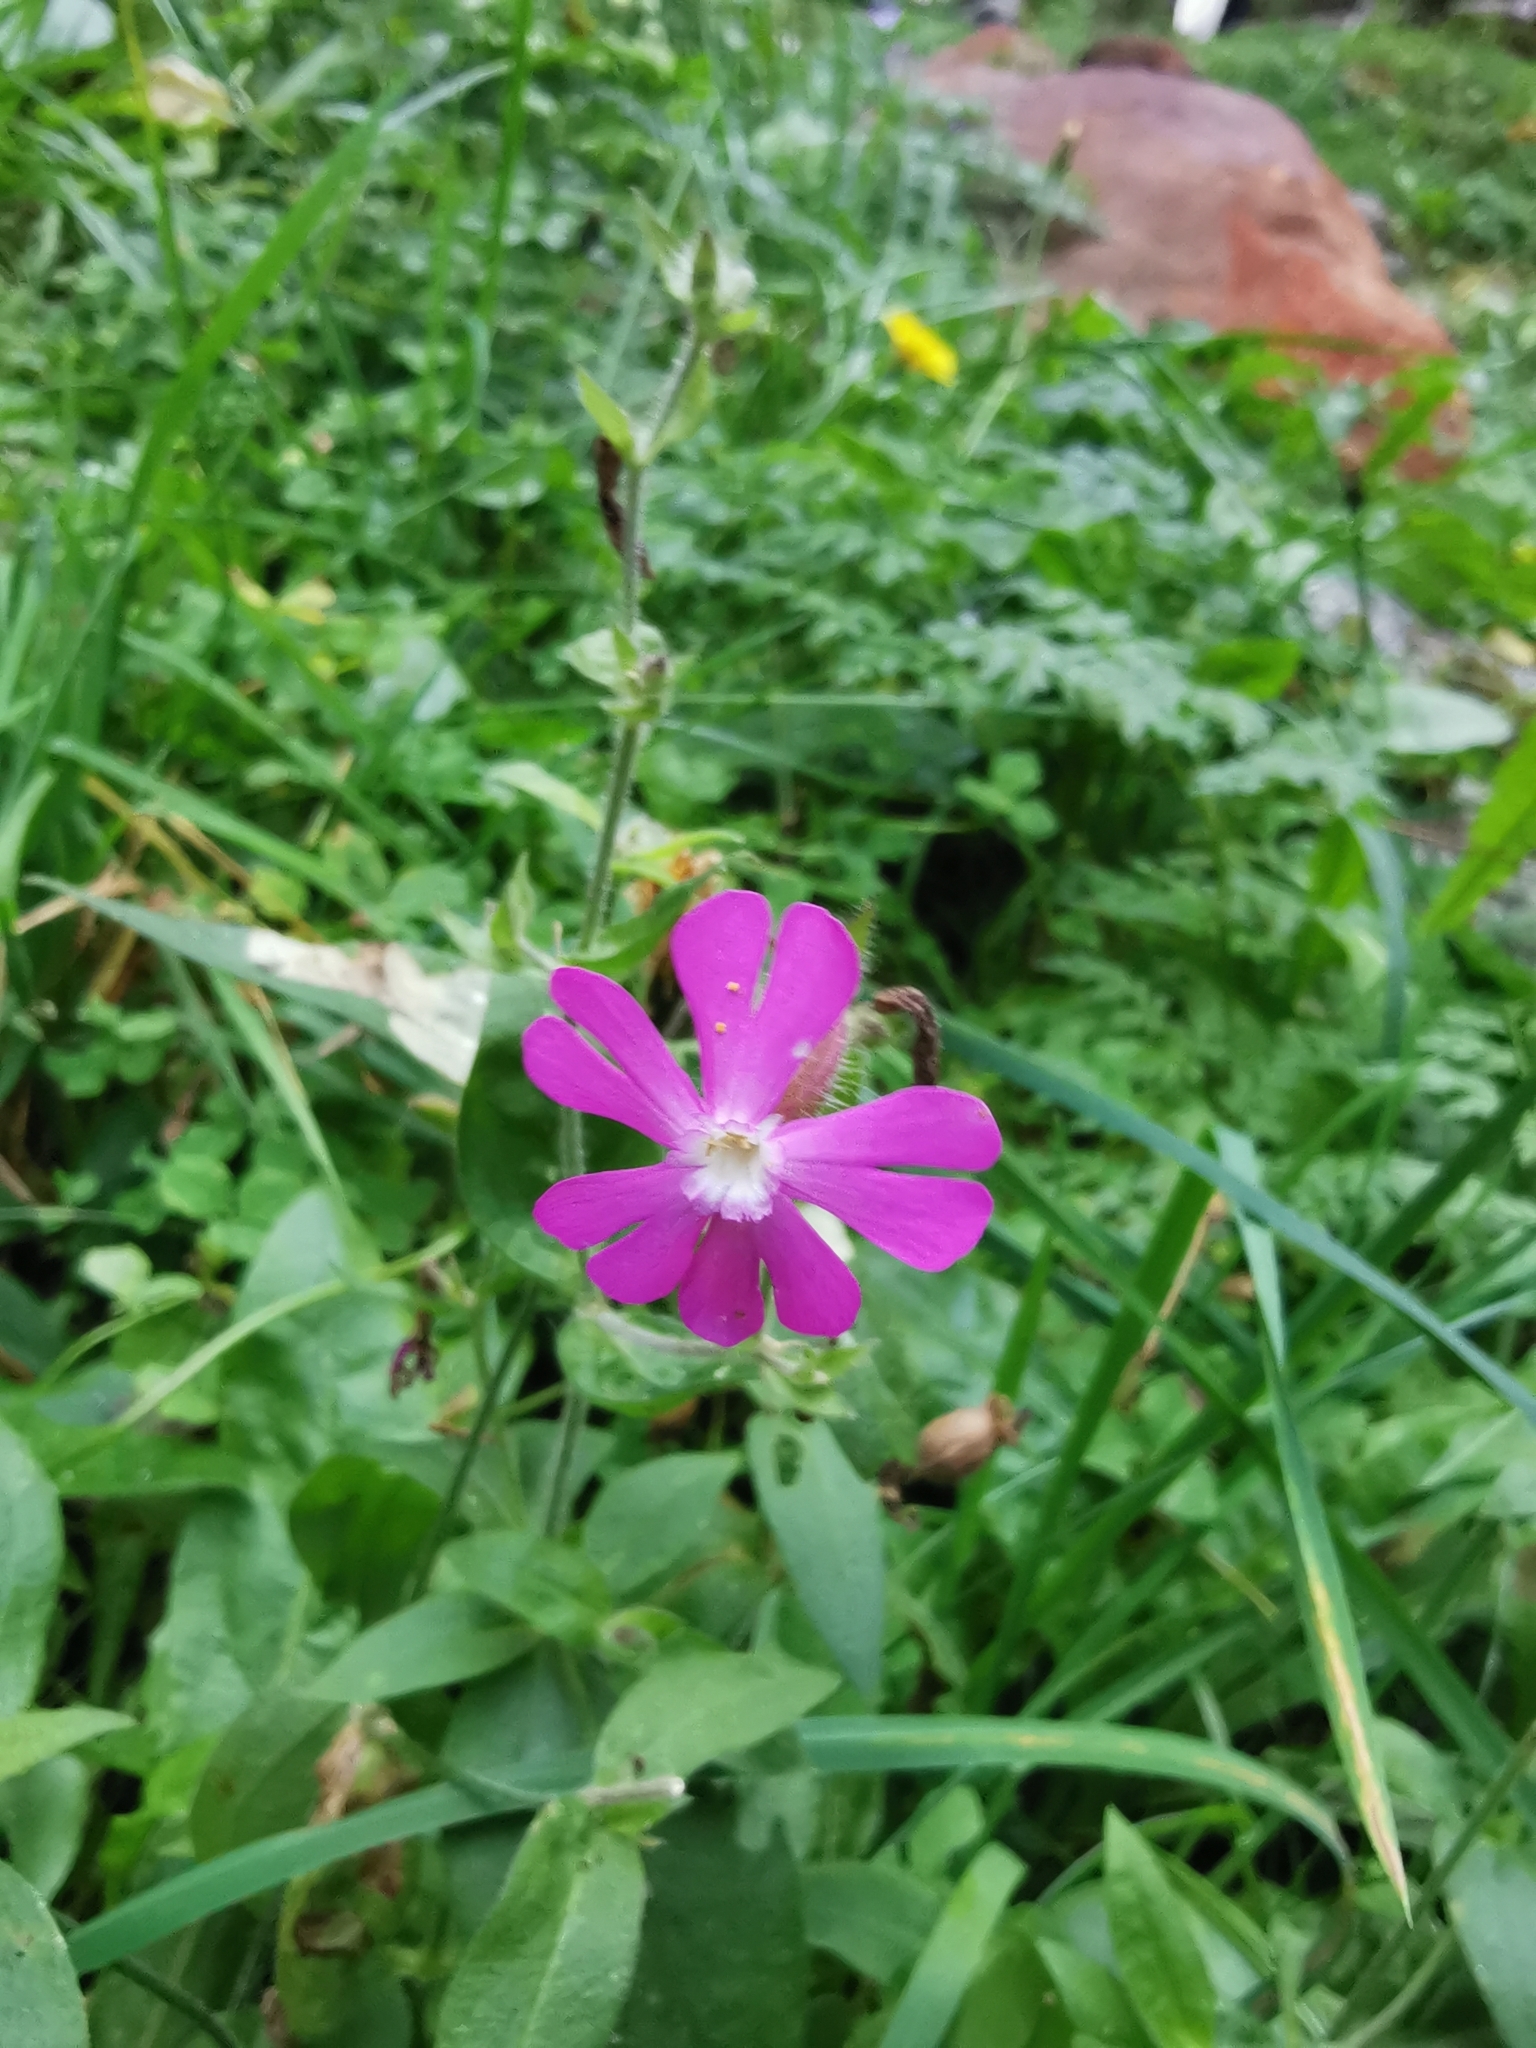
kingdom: Plantae
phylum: Tracheophyta
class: Magnoliopsida
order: Caryophyllales
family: Caryophyllaceae
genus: Silene
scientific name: Silene dioica
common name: Red campion
